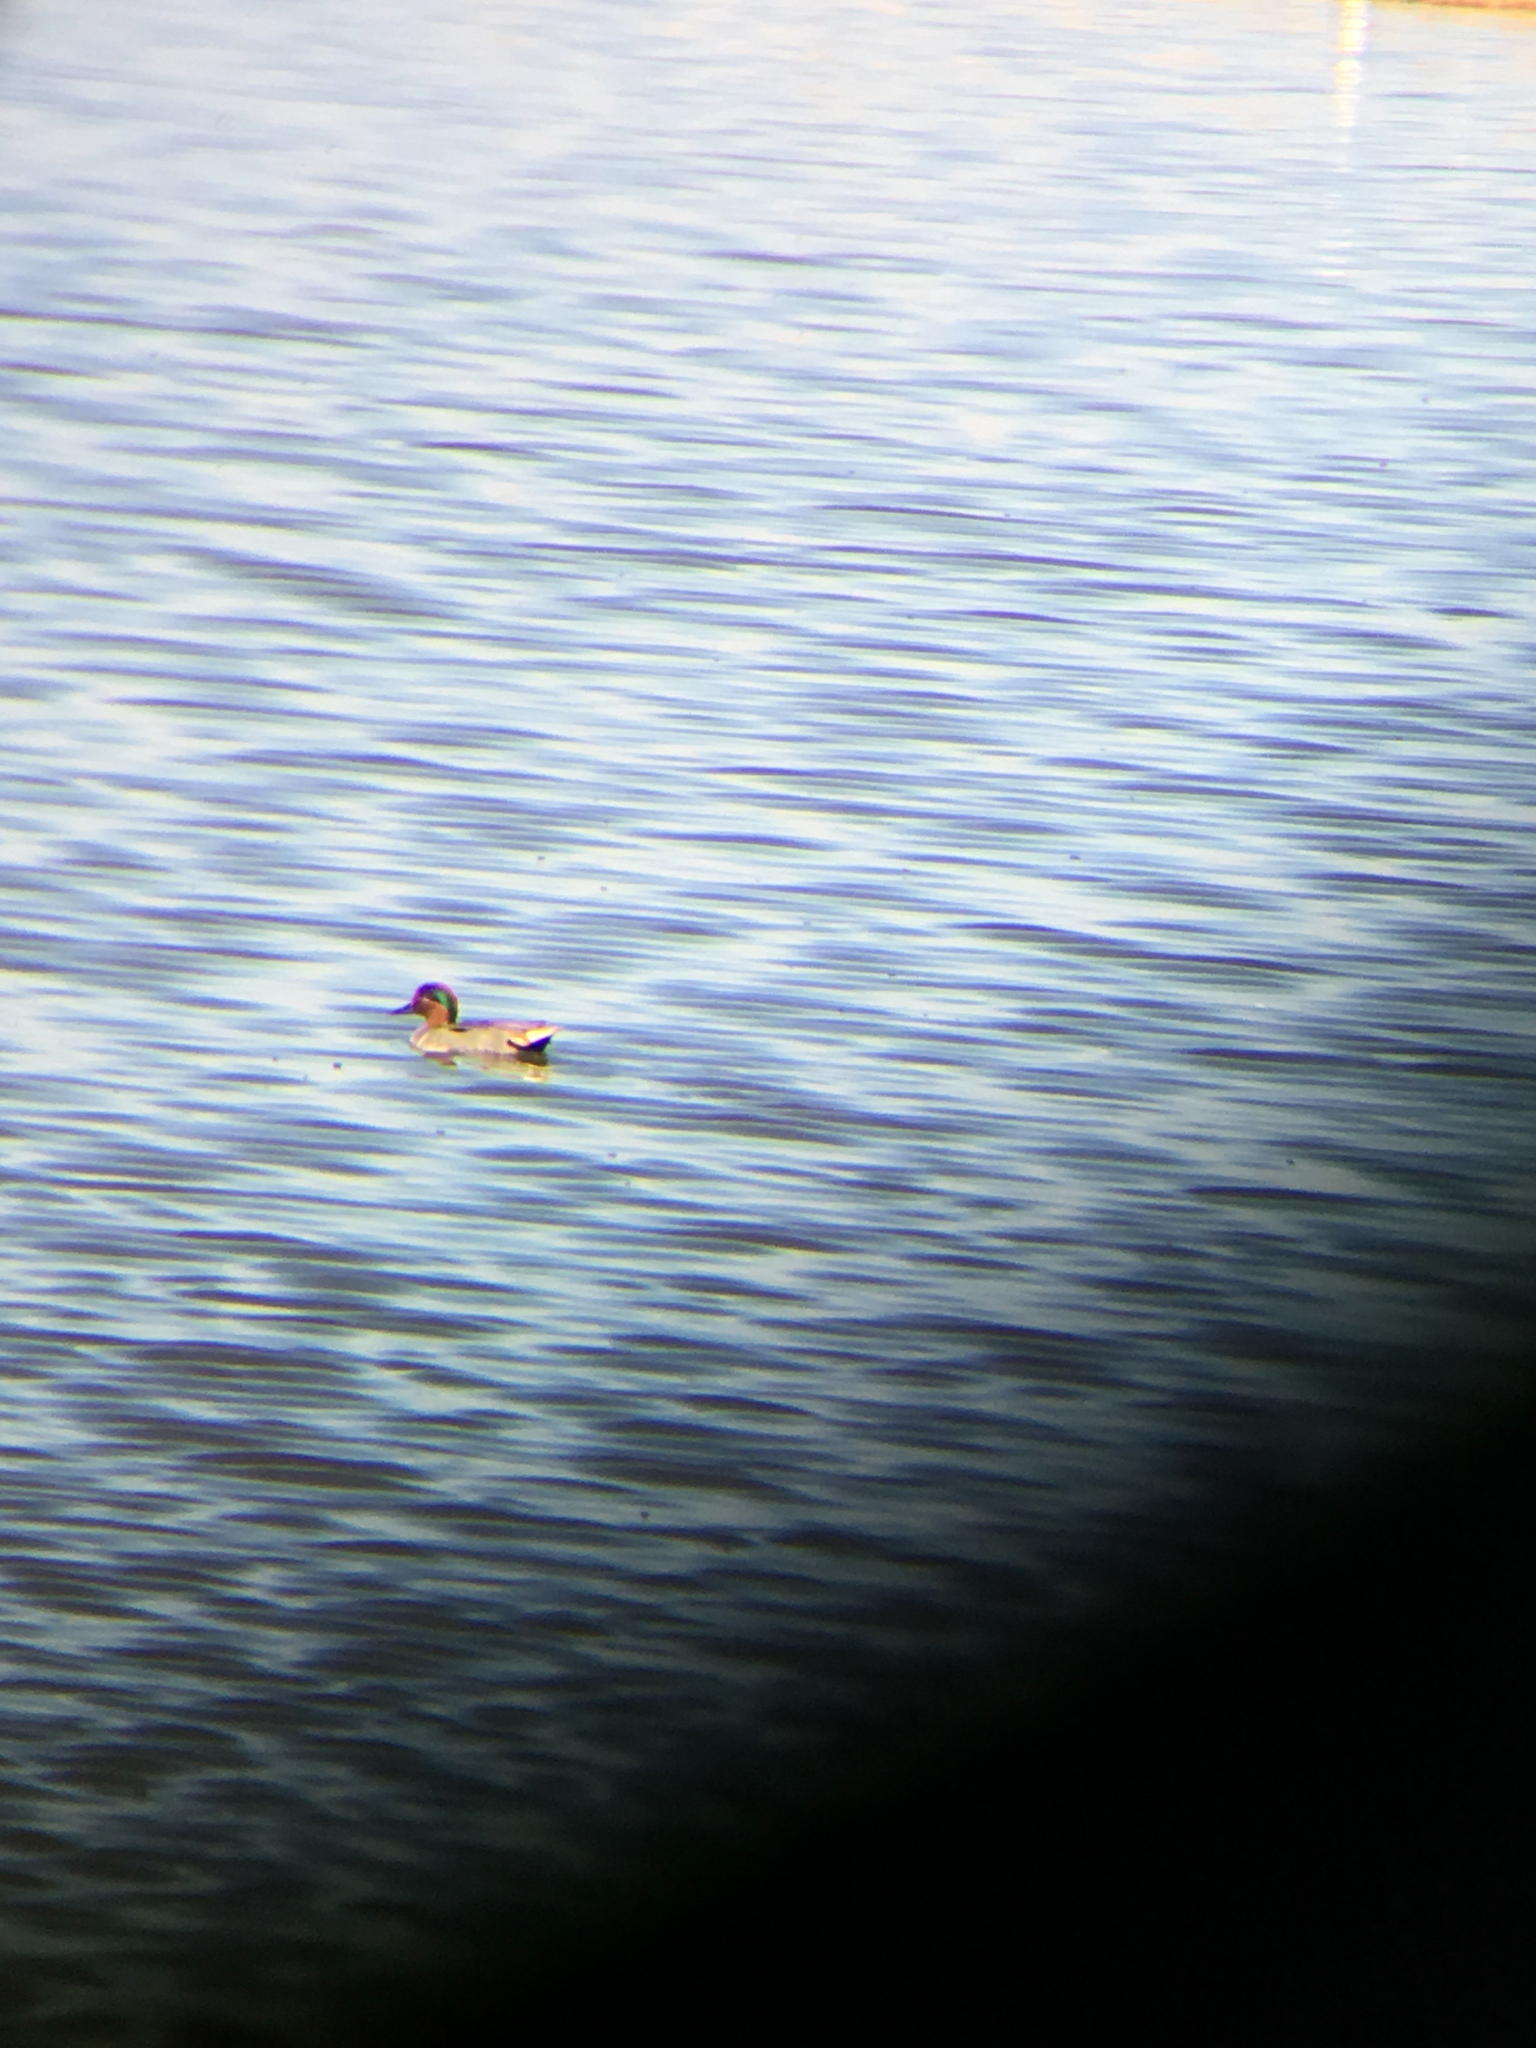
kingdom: Animalia
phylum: Chordata
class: Aves
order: Anseriformes
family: Anatidae
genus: Anas
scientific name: Anas crecca
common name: Eurasian teal
